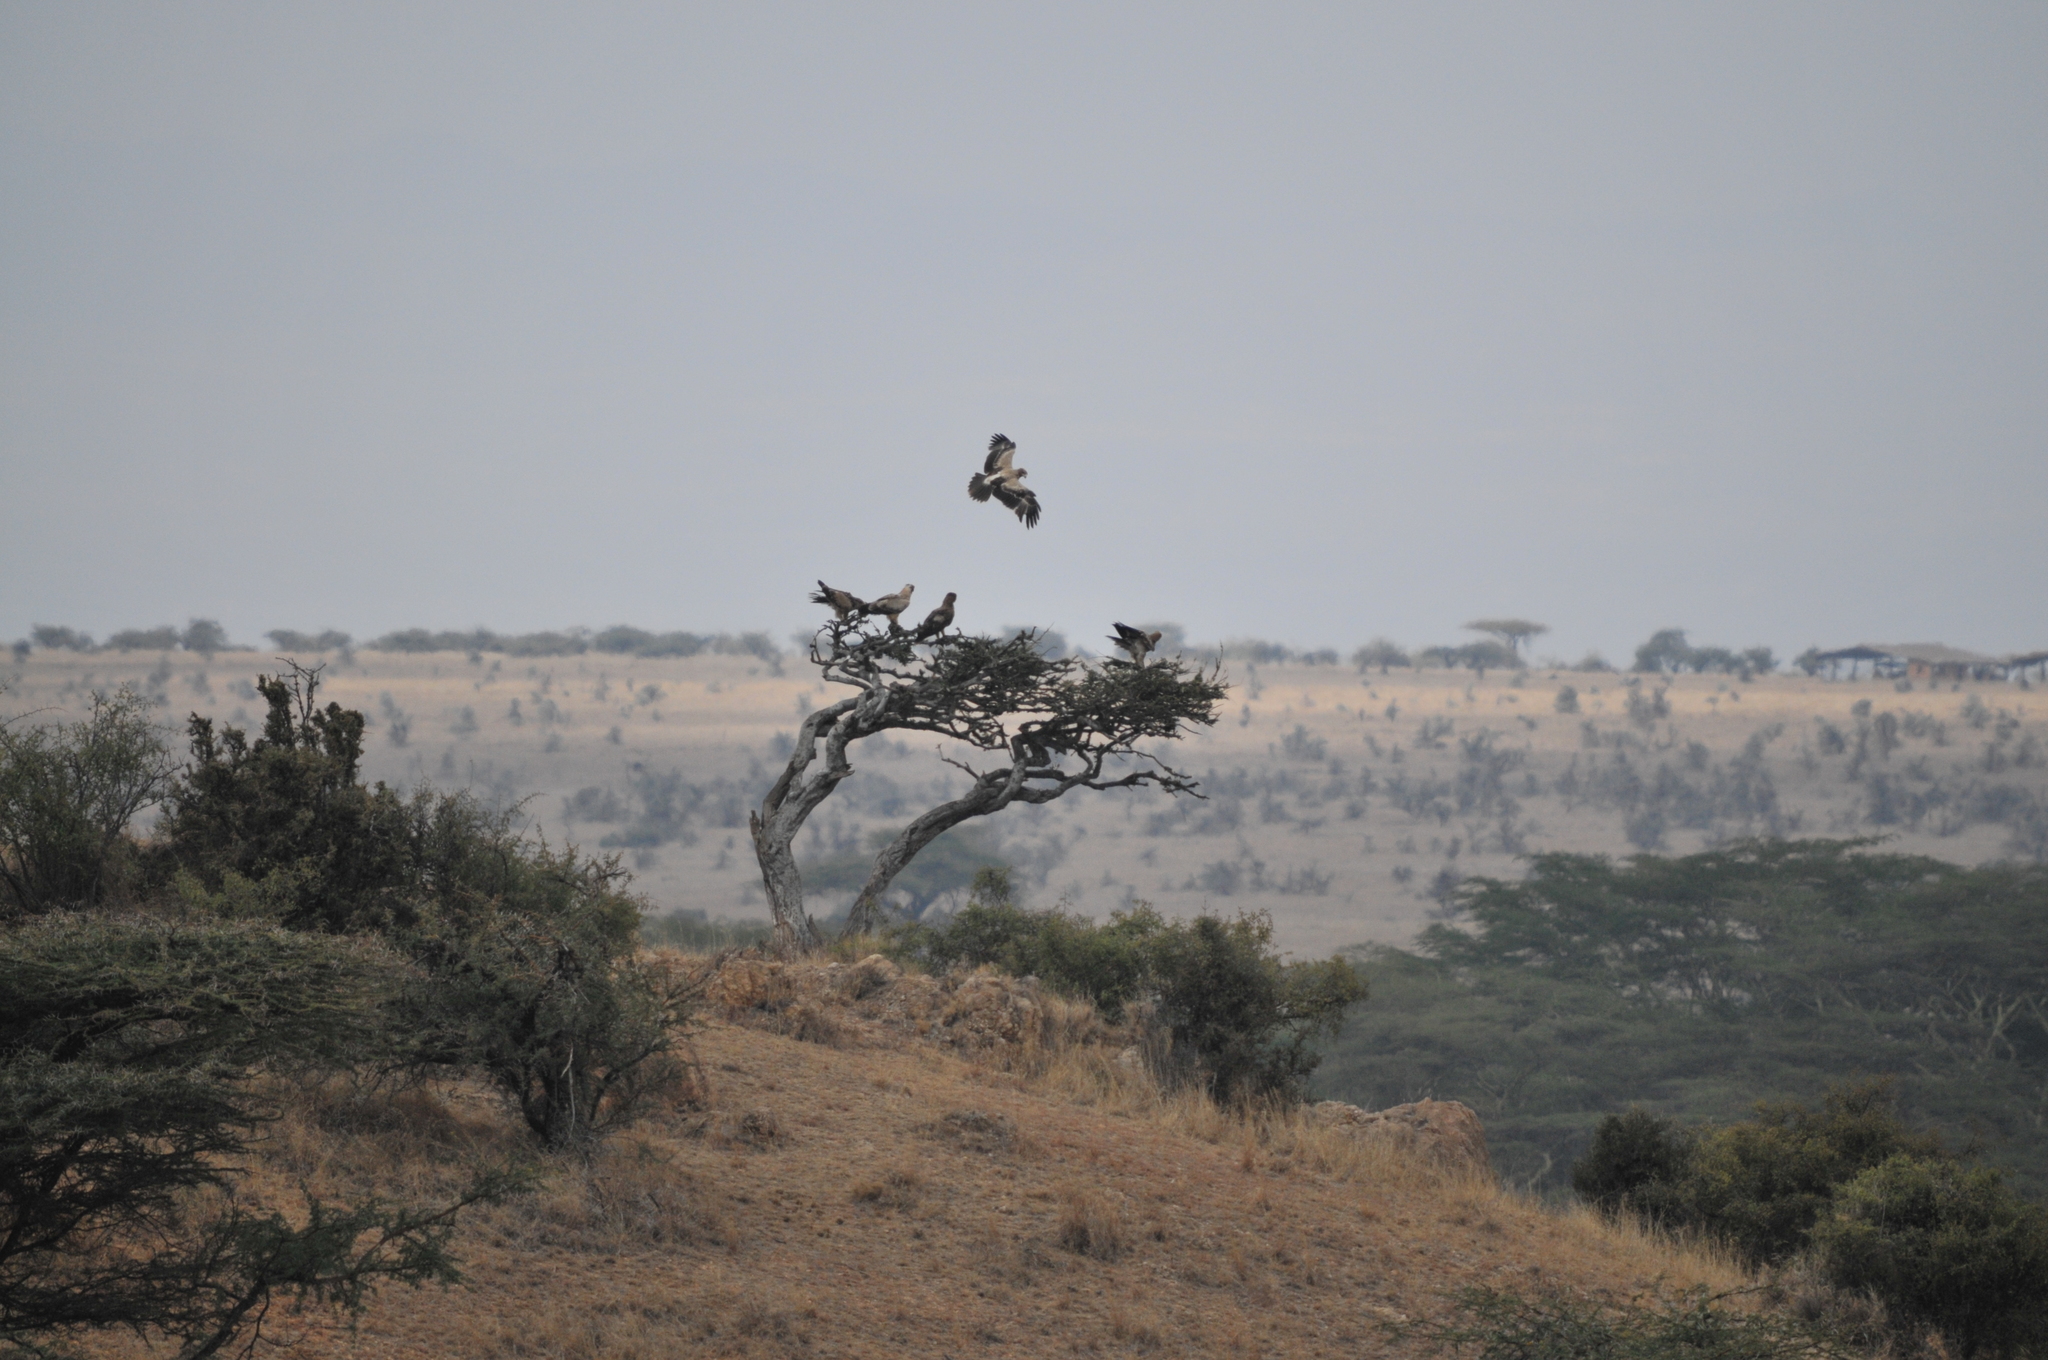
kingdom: Animalia
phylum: Chordata
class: Aves
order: Accipitriformes
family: Accipitridae
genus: Aquila
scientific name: Aquila rapax
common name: Tawny eagle
